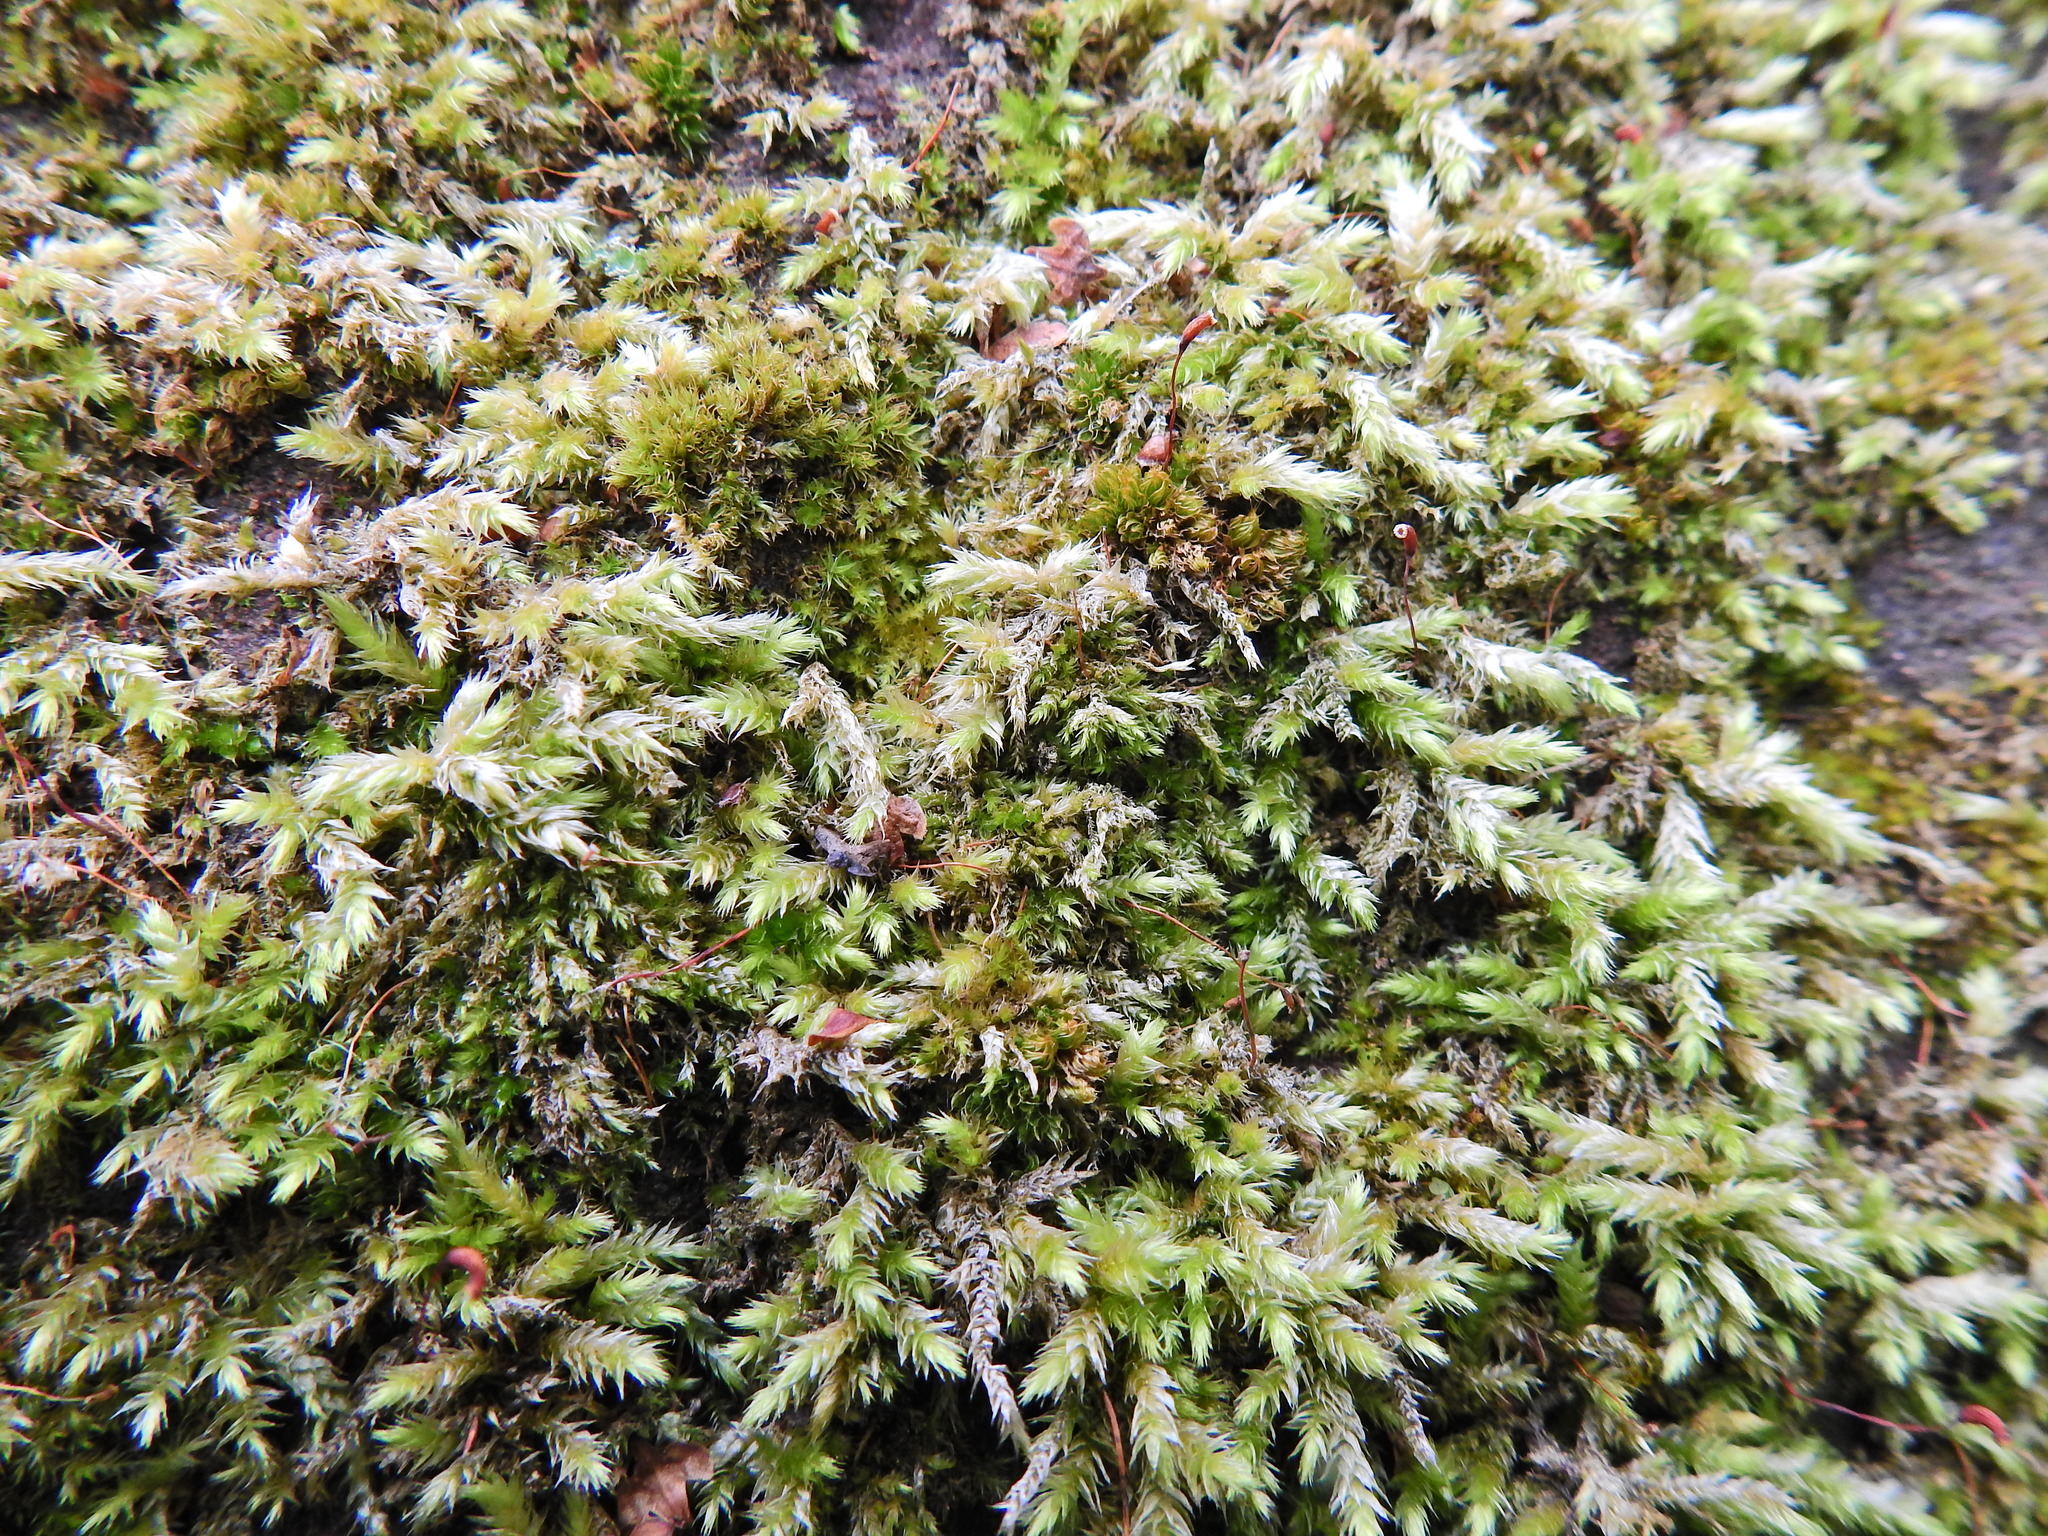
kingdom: Plantae
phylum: Bryophyta
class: Bryopsida
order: Hypnales
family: Brachytheciaceae
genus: Brachythecium
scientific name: Brachythecium rutabulum
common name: Rough-stalked feather-moss
